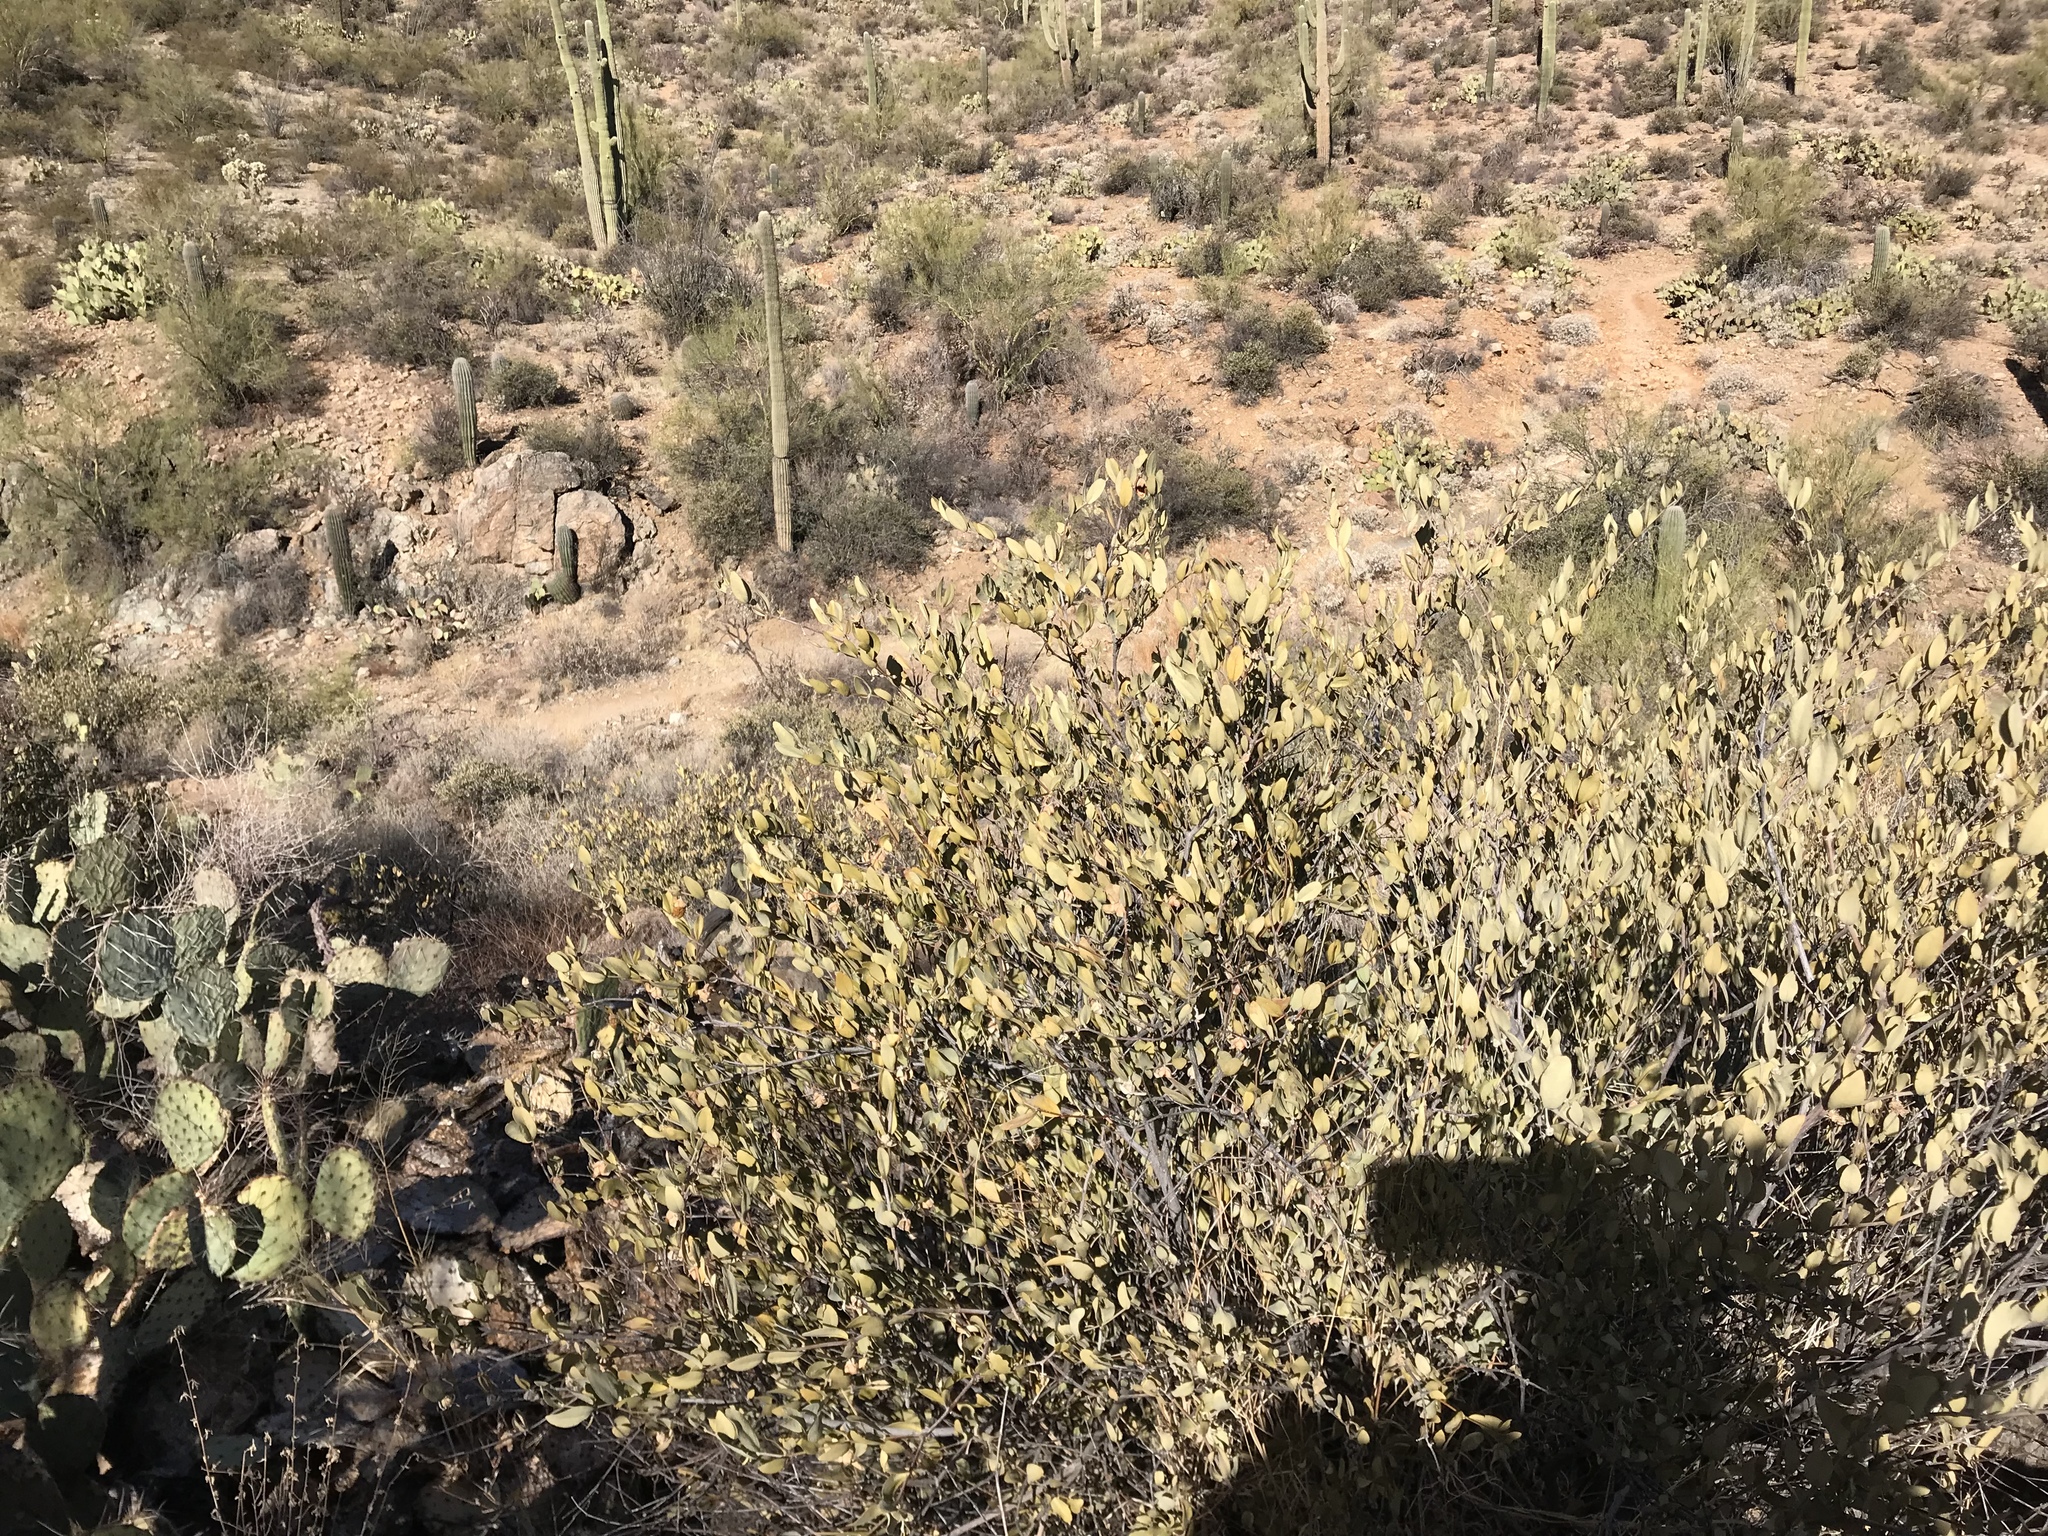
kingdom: Plantae
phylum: Tracheophyta
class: Magnoliopsida
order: Caryophyllales
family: Simmondsiaceae
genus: Simmondsia
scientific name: Simmondsia chinensis
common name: Jojoba
